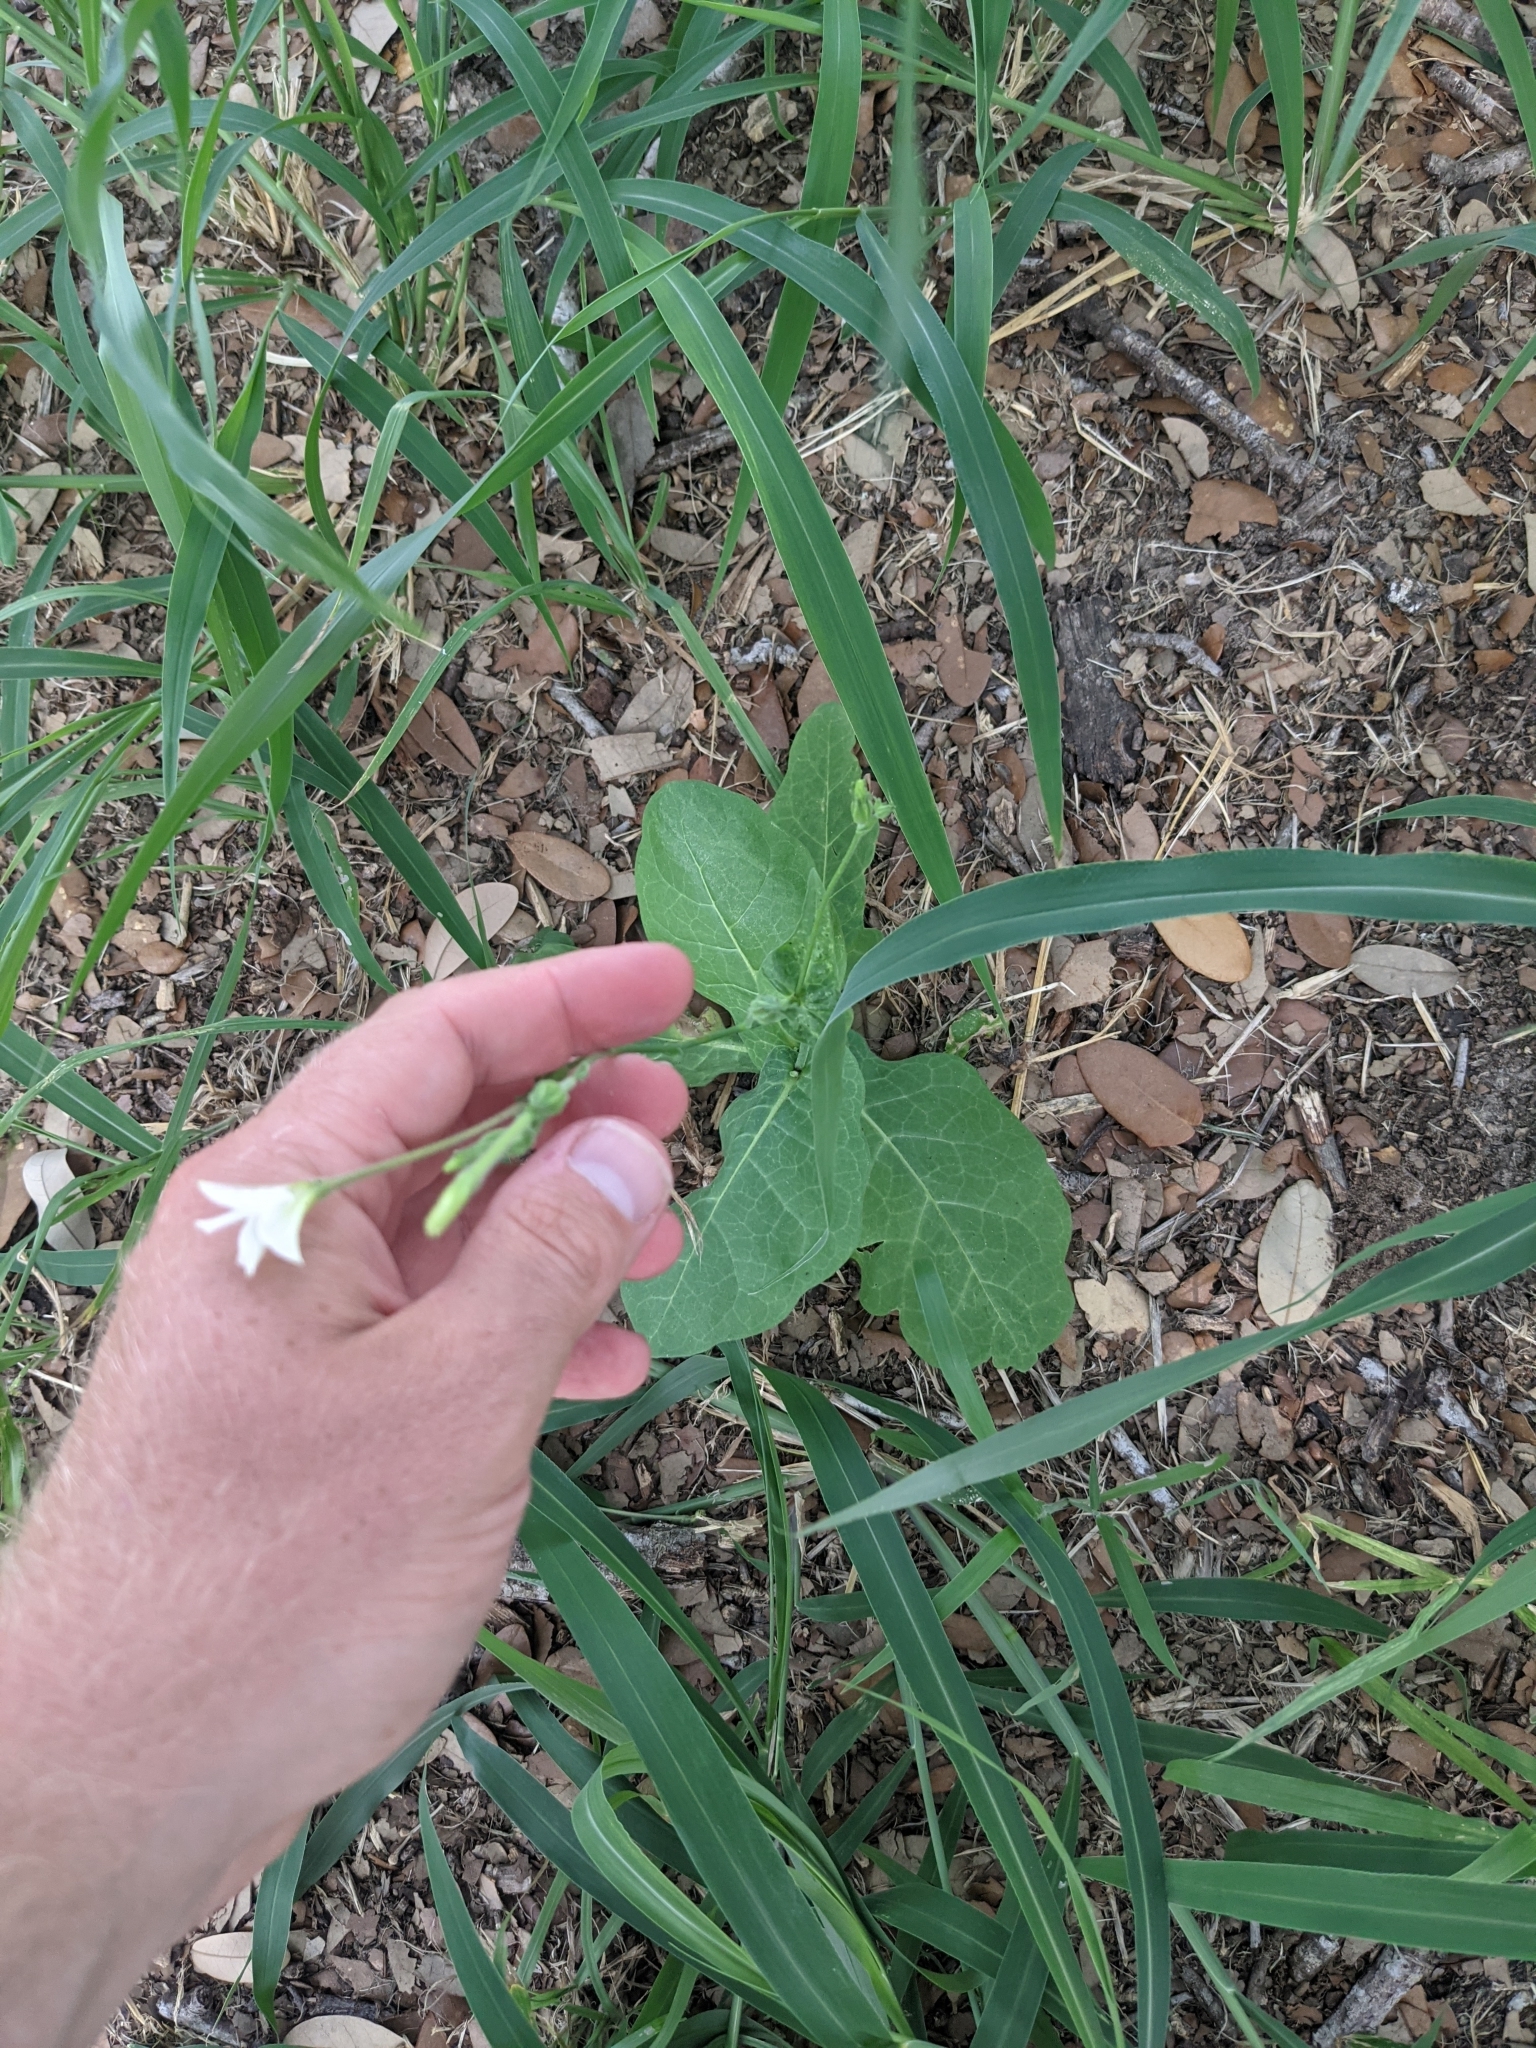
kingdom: Plantae
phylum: Tracheophyta
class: Magnoliopsida
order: Solanales
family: Solanaceae
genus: Nicotiana
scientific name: Nicotiana repanda
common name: Fiddle-leaf tobacco
